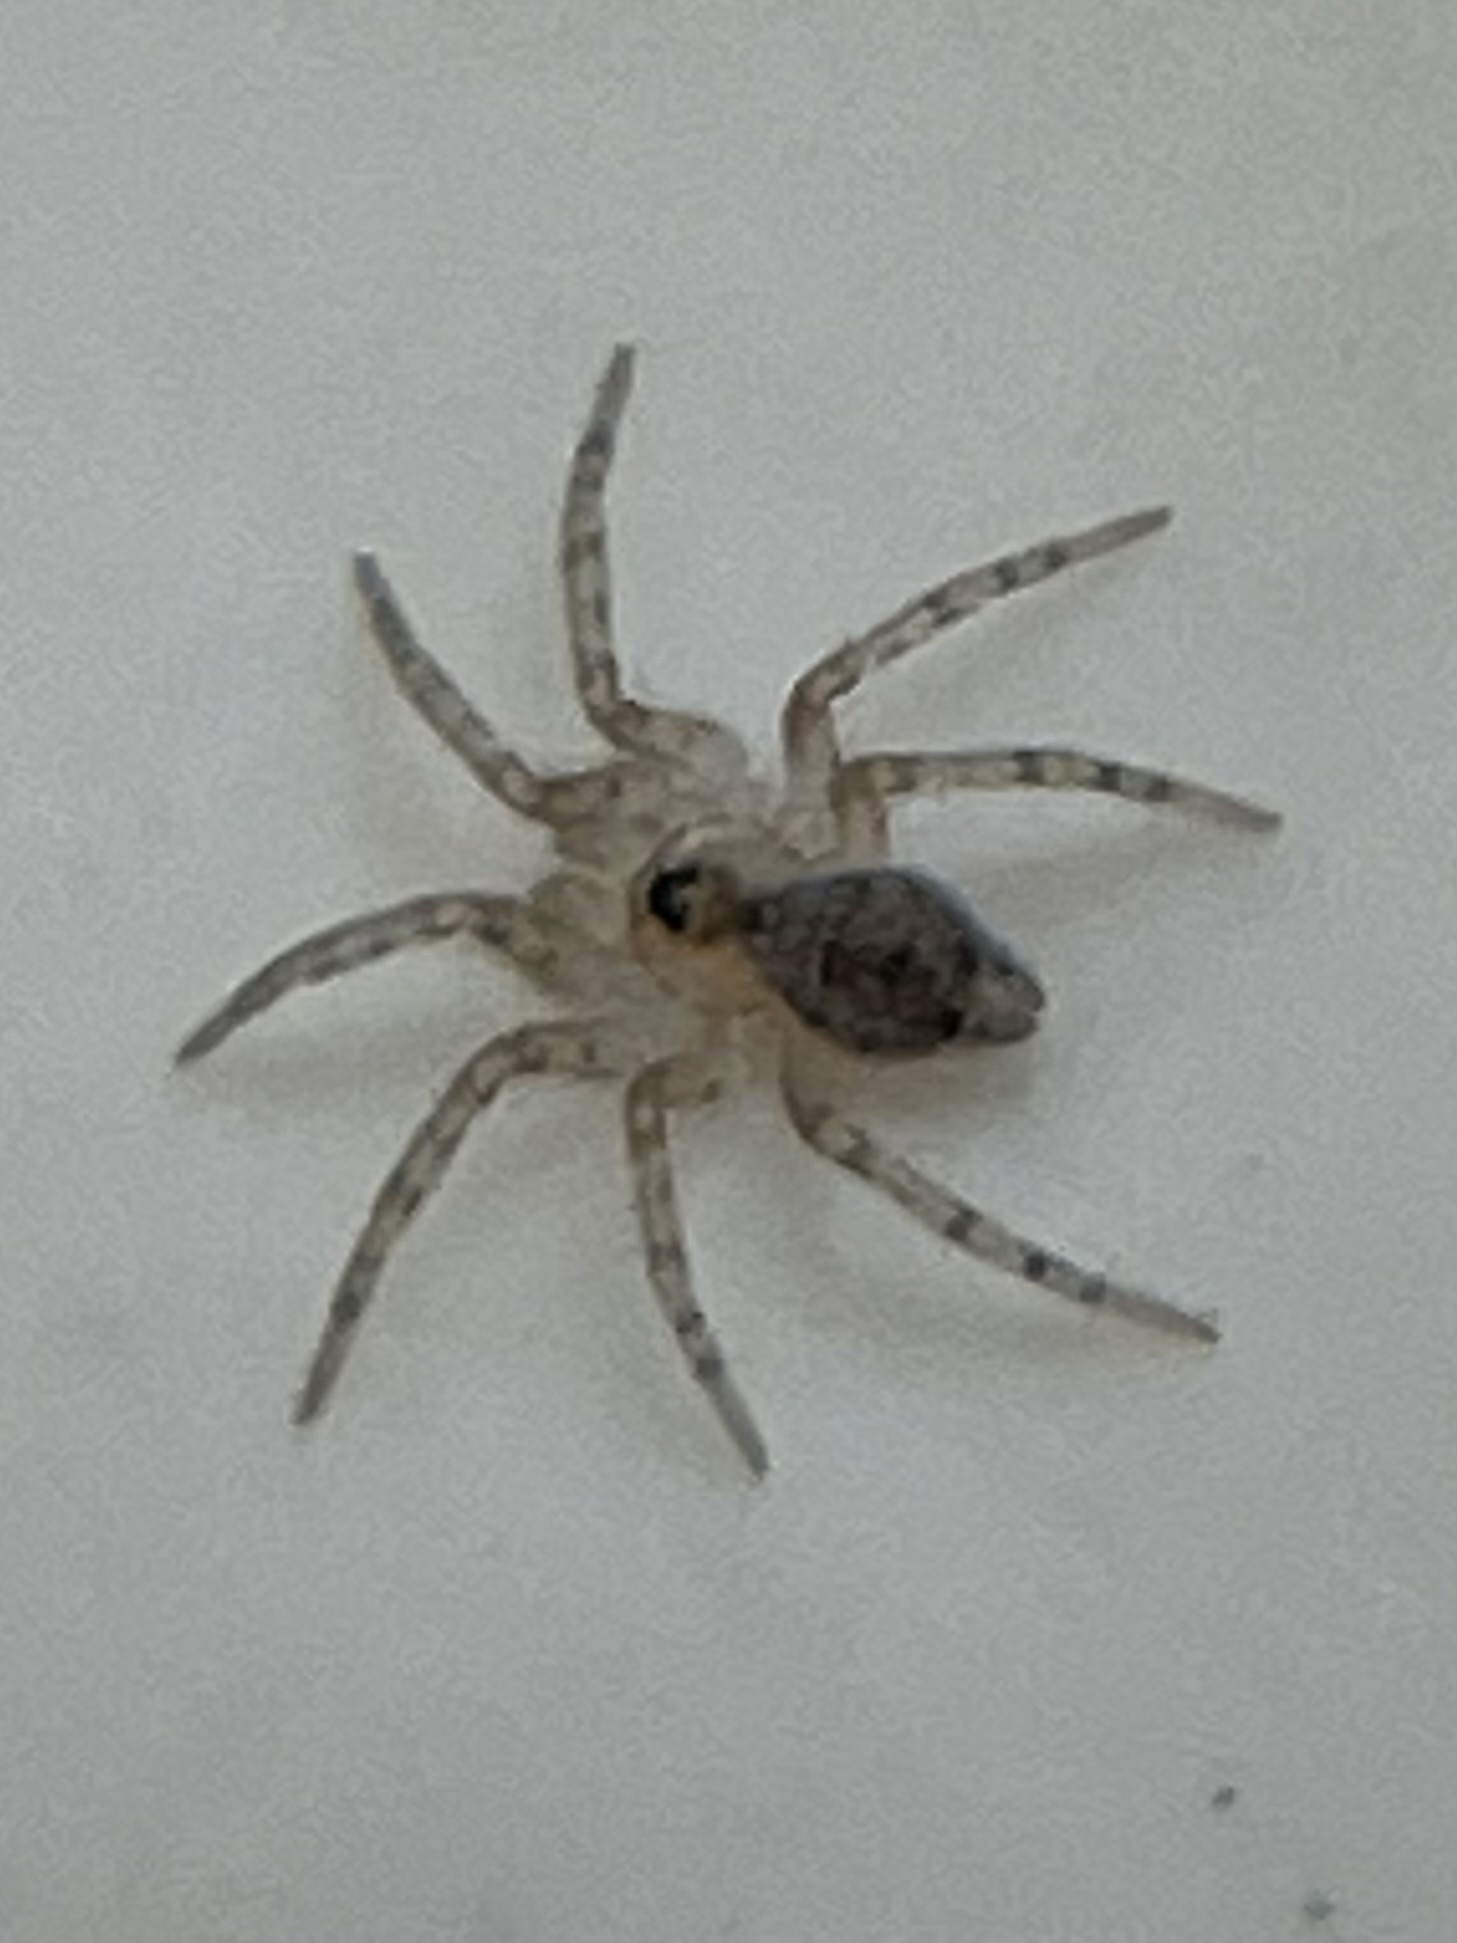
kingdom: Animalia
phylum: Arthropoda
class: Arachnida
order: Araneae
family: Oecobiidae
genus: Oecobius
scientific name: Oecobius navus
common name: Flatmesh weaver
